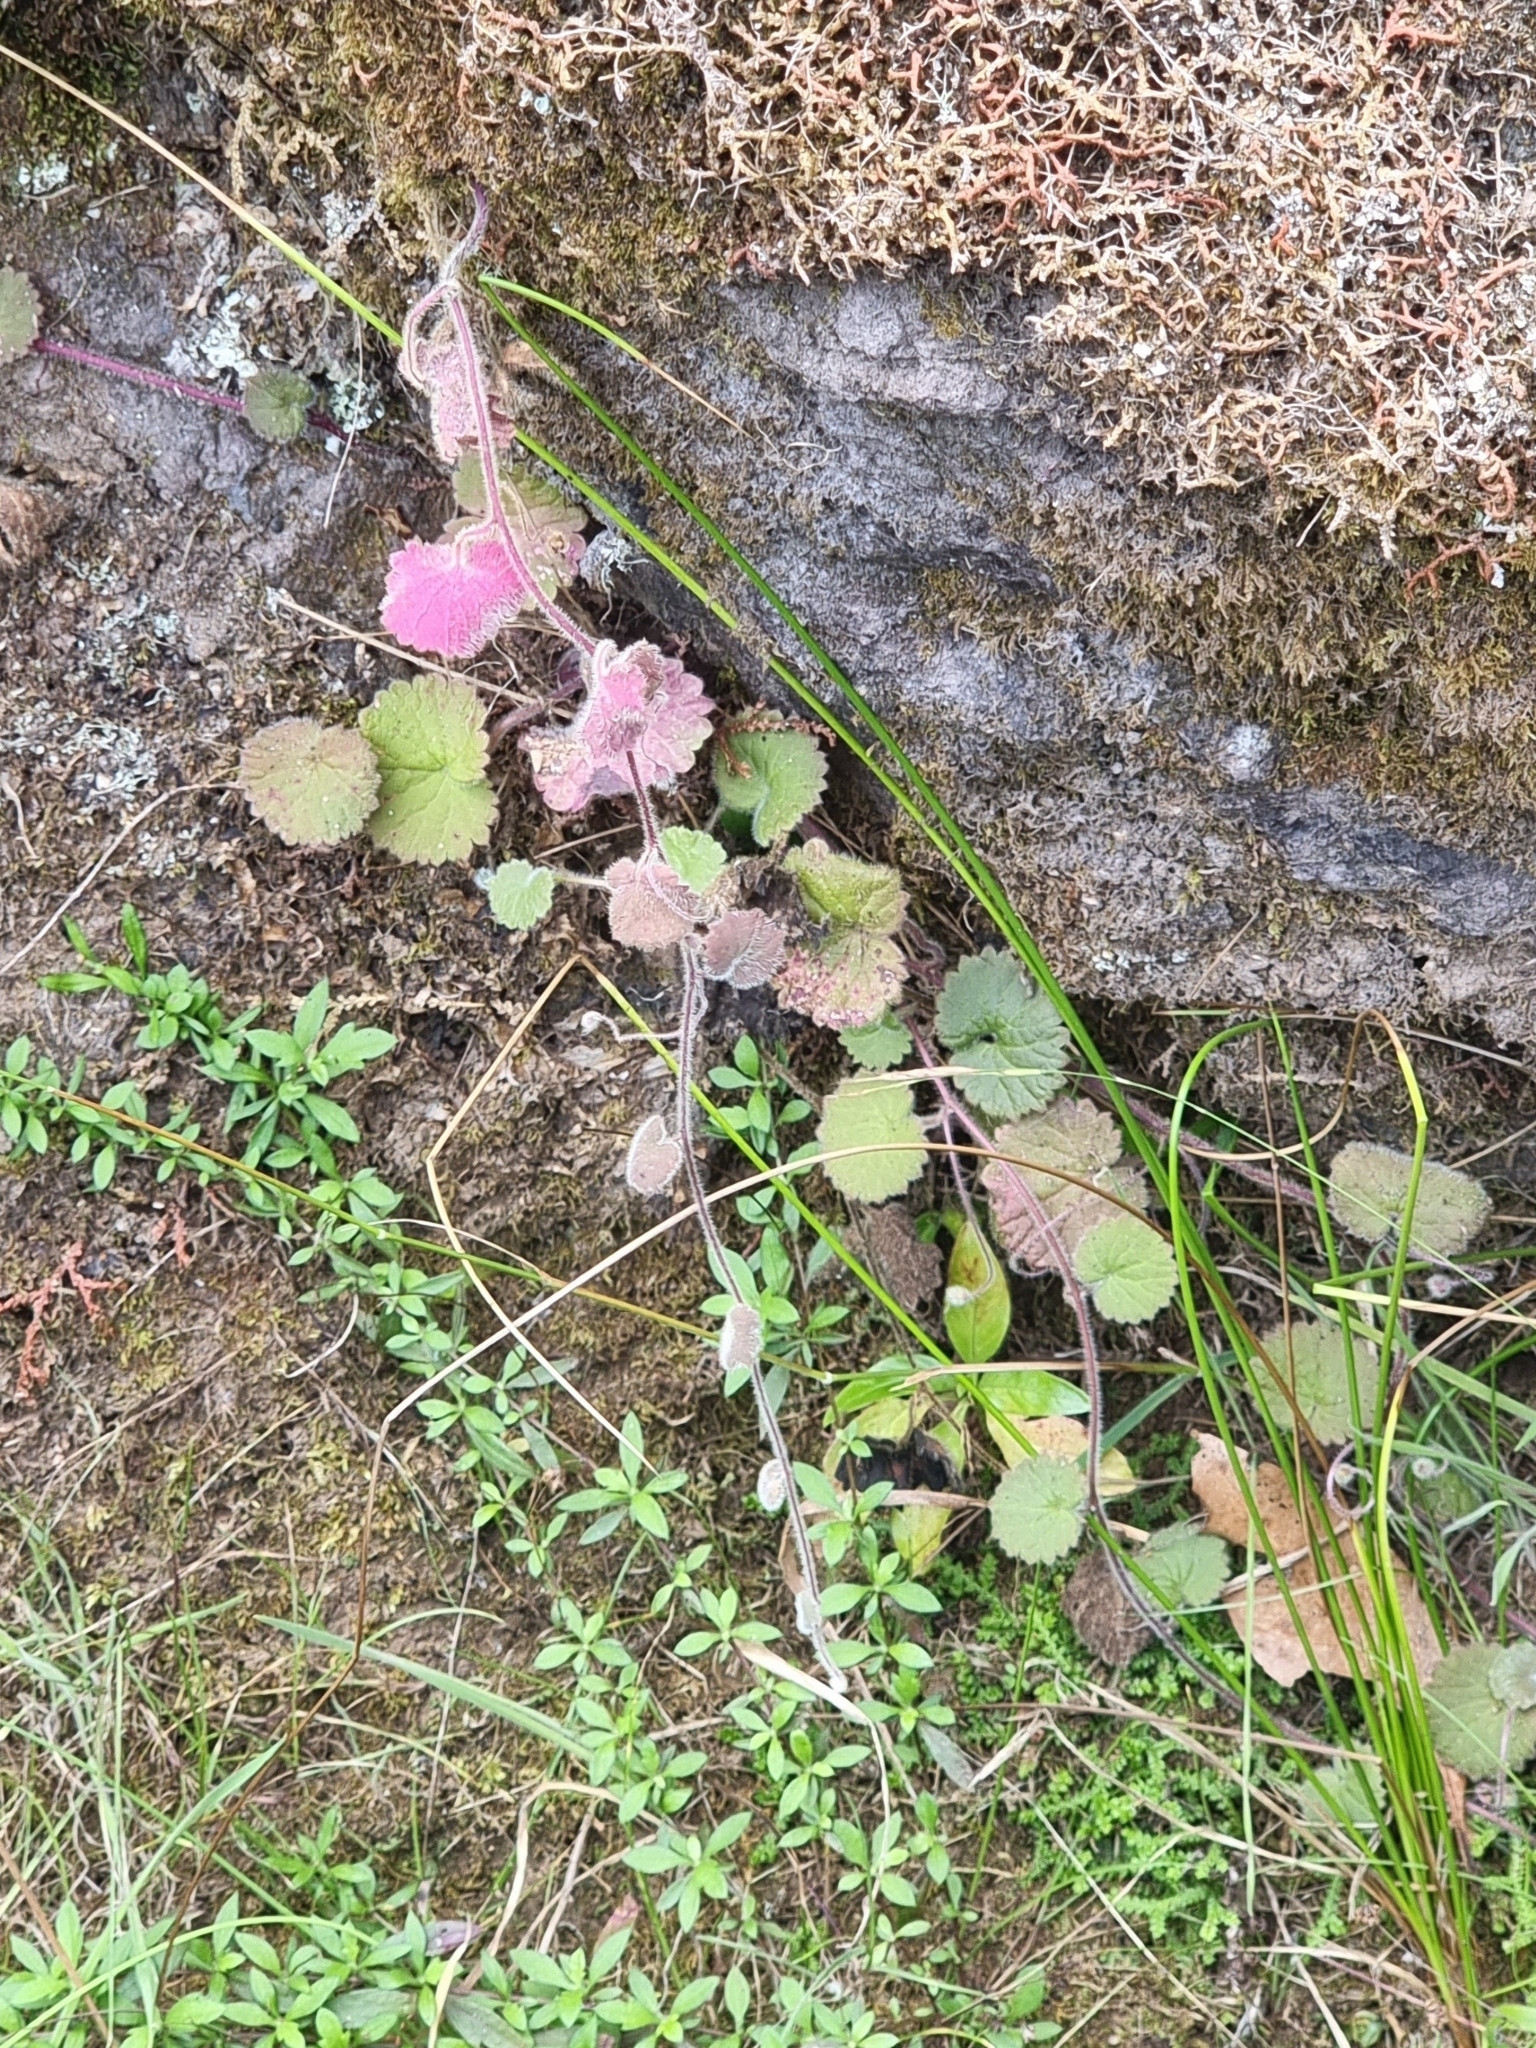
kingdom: Plantae
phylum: Tracheophyta
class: Magnoliopsida
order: Lamiales
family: Plantaginaceae
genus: Sibthorpia
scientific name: Sibthorpia peregrina
